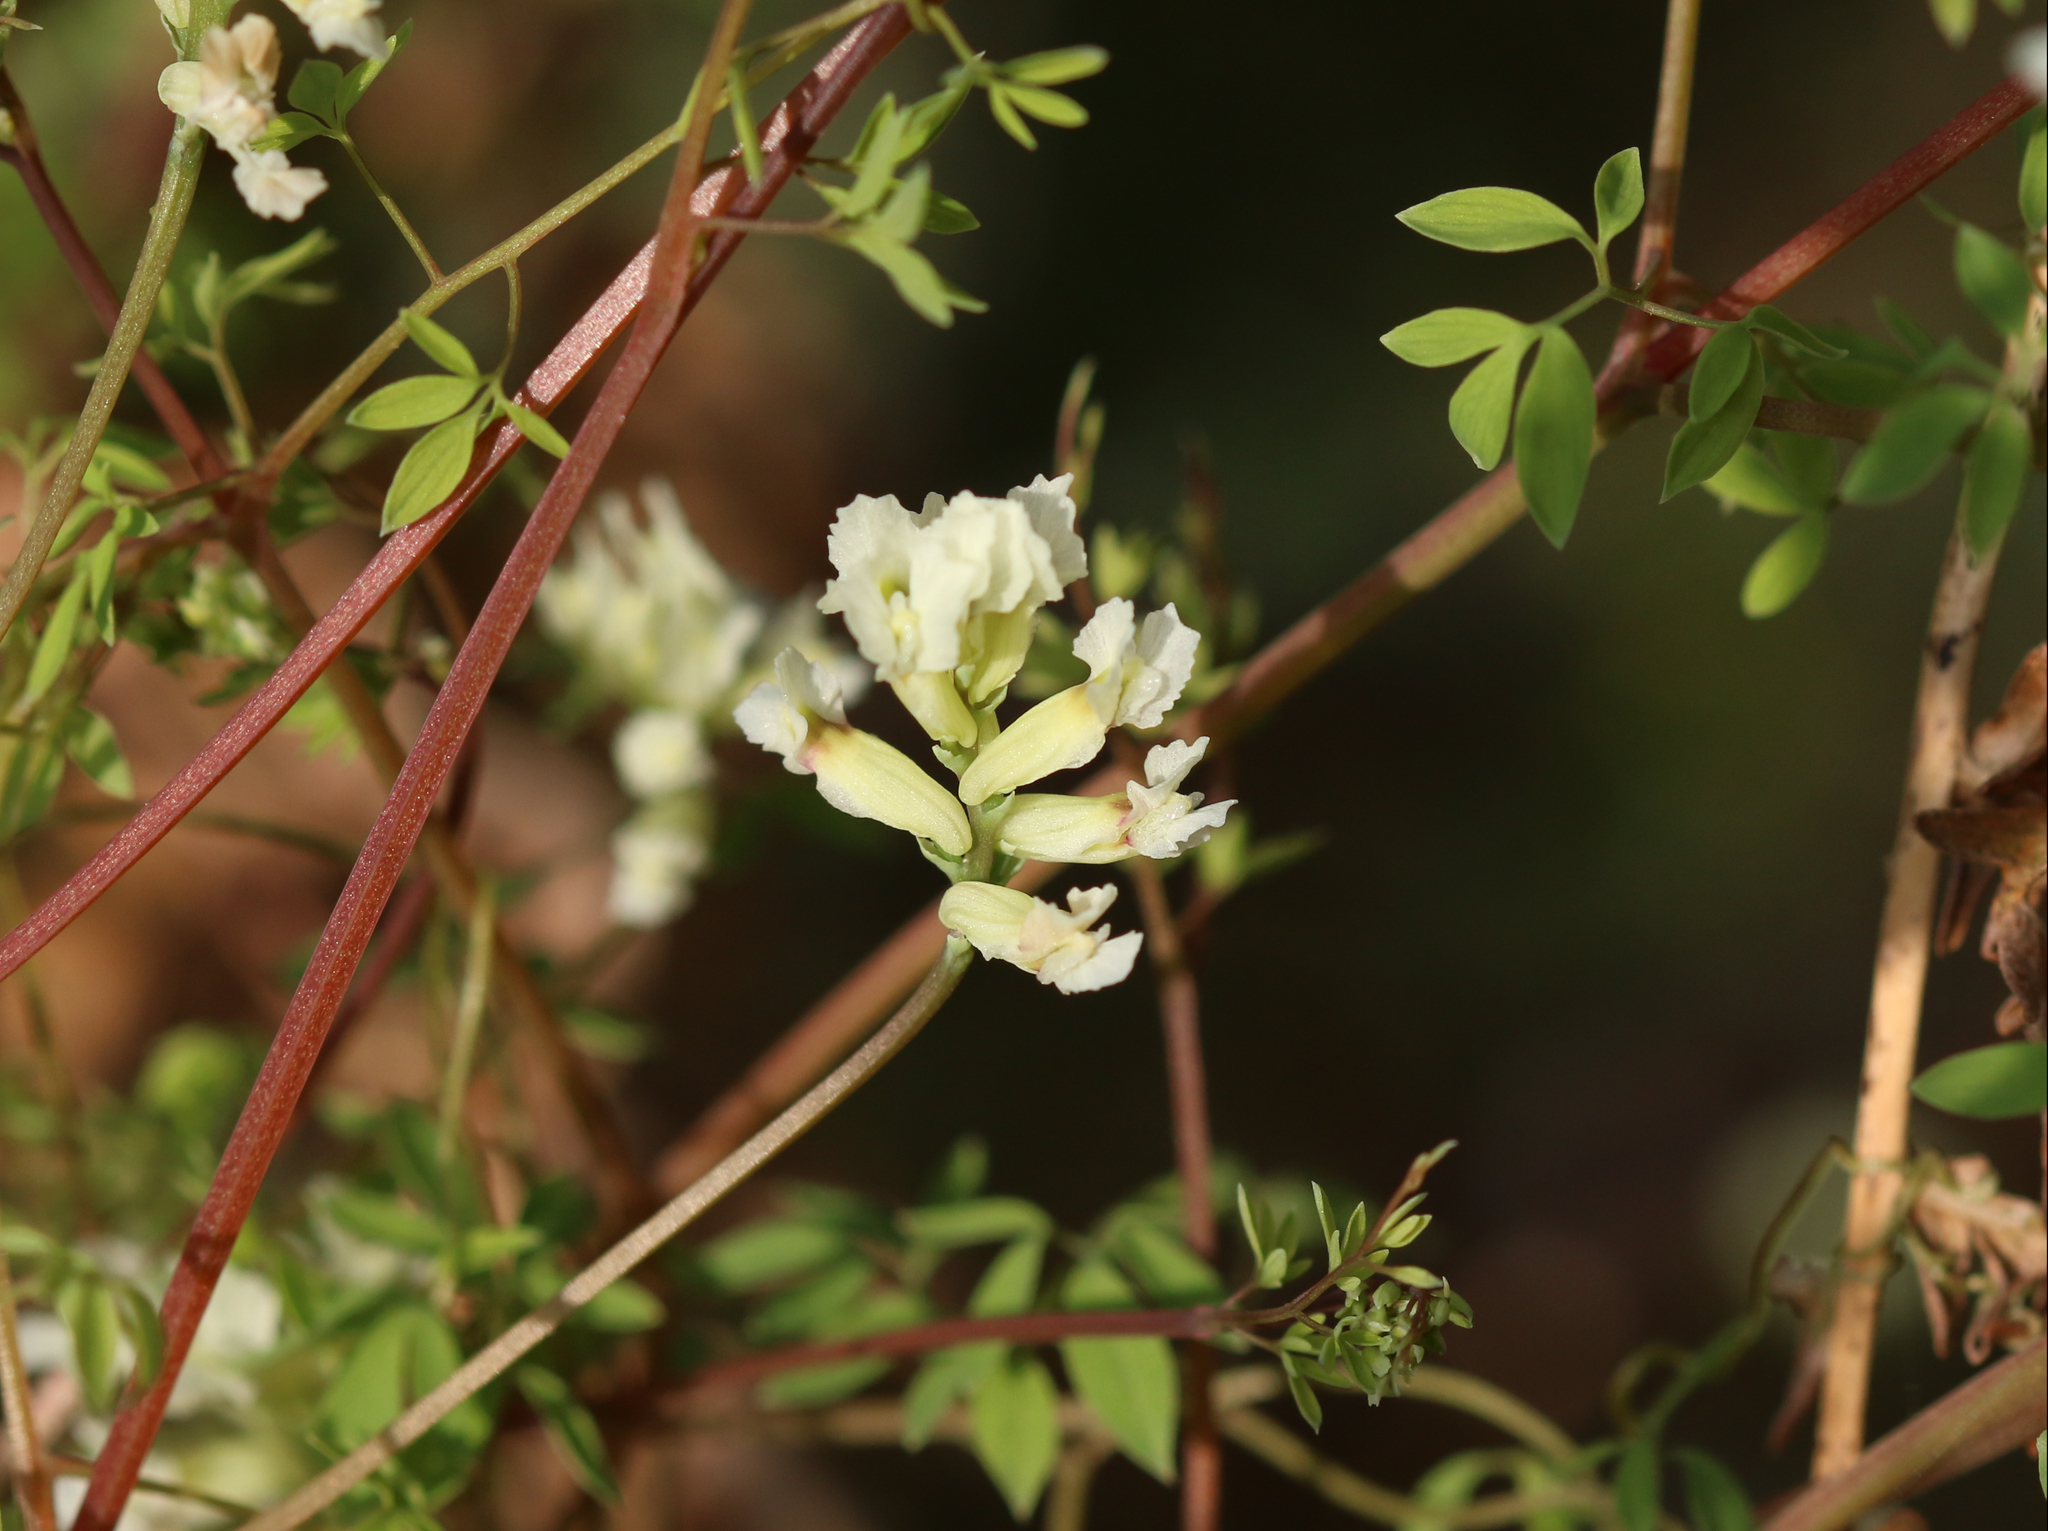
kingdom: Plantae
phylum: Tracheophyta
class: Magnoliopsida
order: Ranunculales
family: Papaveraceae
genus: Ceratocapnos
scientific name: Ceratocapnos claviculata
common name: Climbing corydalis
